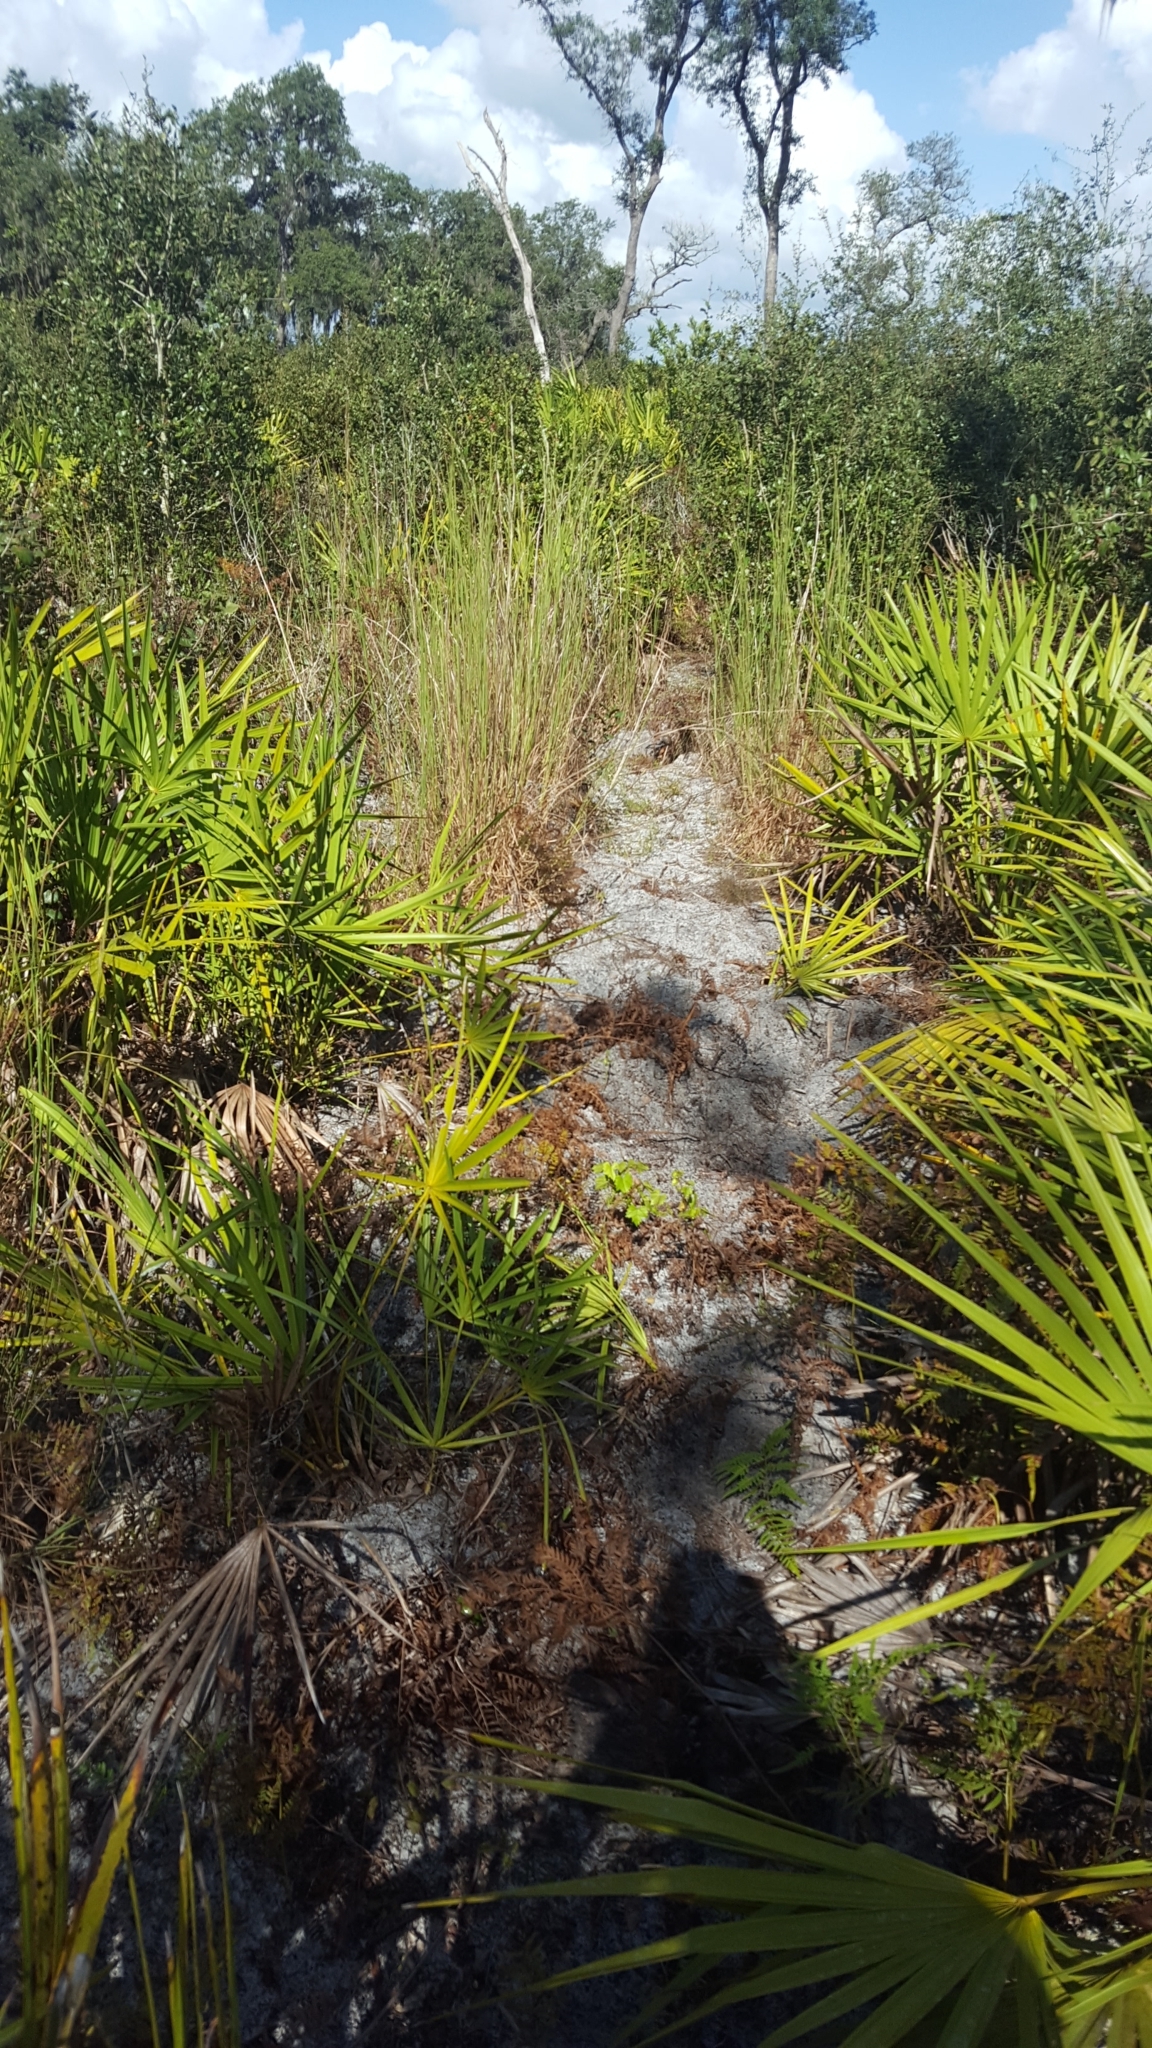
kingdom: Plantae
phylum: Tracheophyta
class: Liliopsida
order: Arecales
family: Arecaceae
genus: Serenoa
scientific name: Serenoa repens
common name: Saw-palmetto
